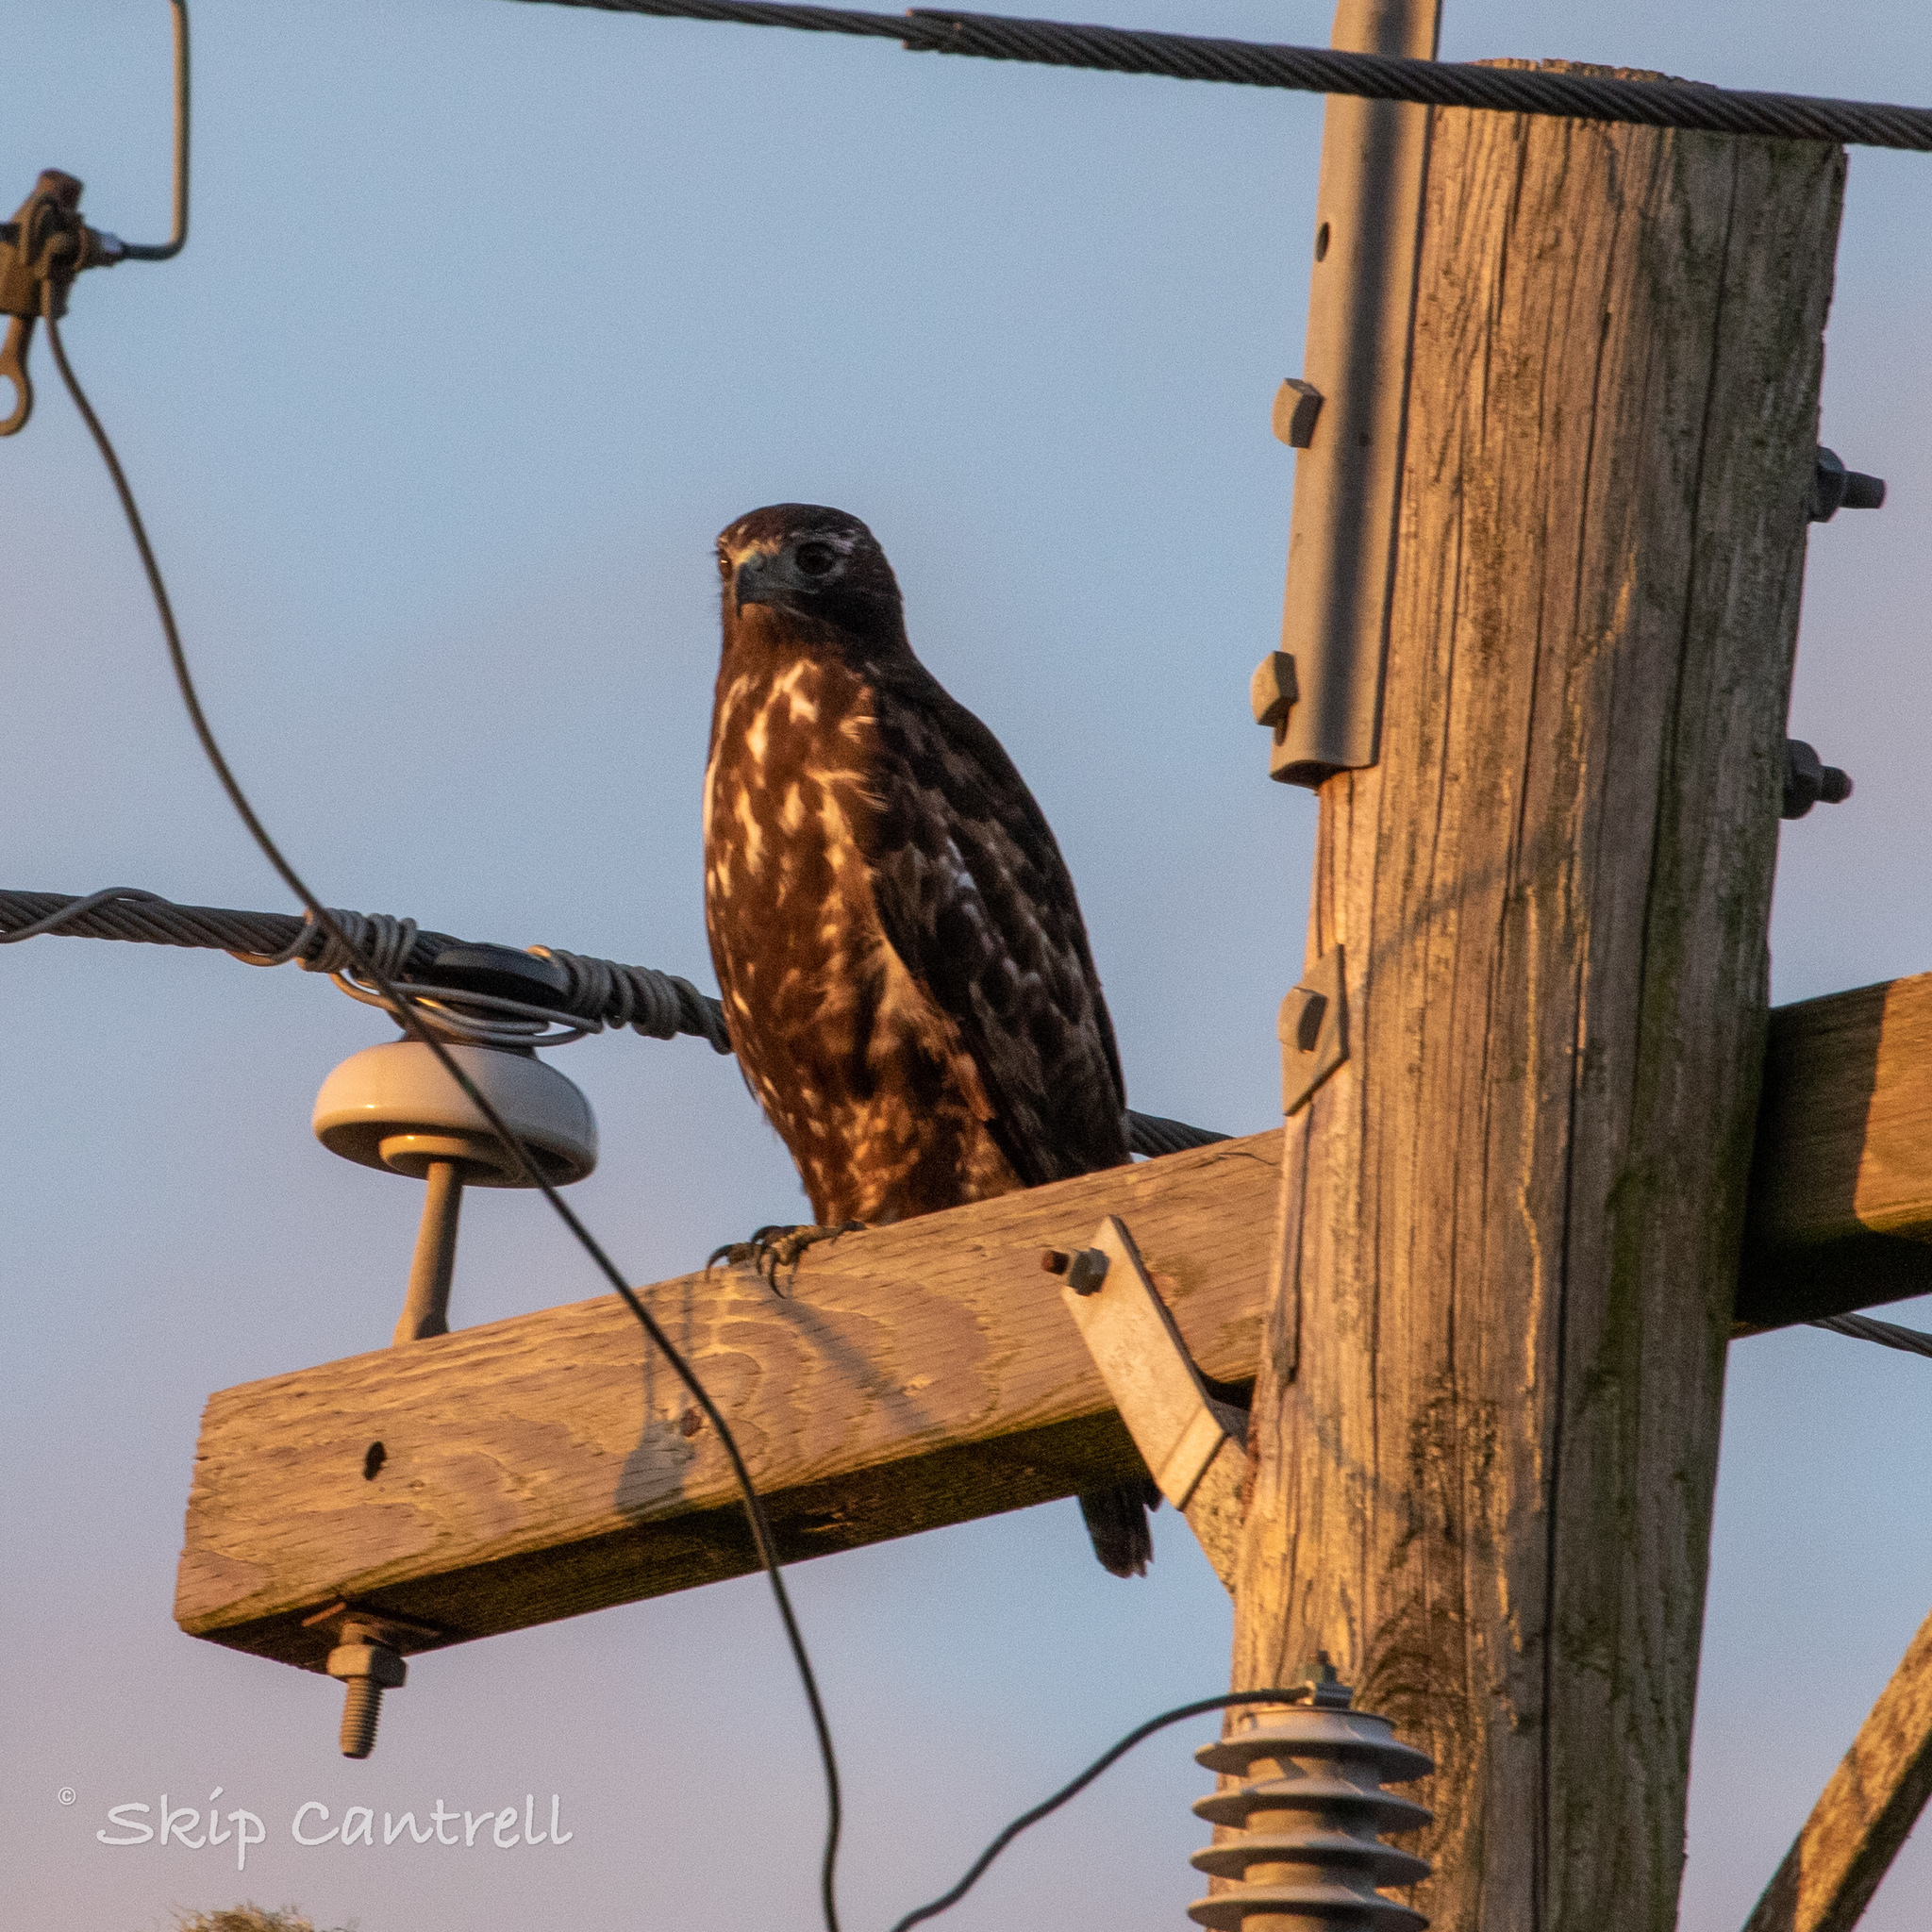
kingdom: Animalia
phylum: Chordata
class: Aves
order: Accipitriformes
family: Accipitridae
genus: Buteo
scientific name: Buteo jamaicensis
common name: Red-tailed hawk
